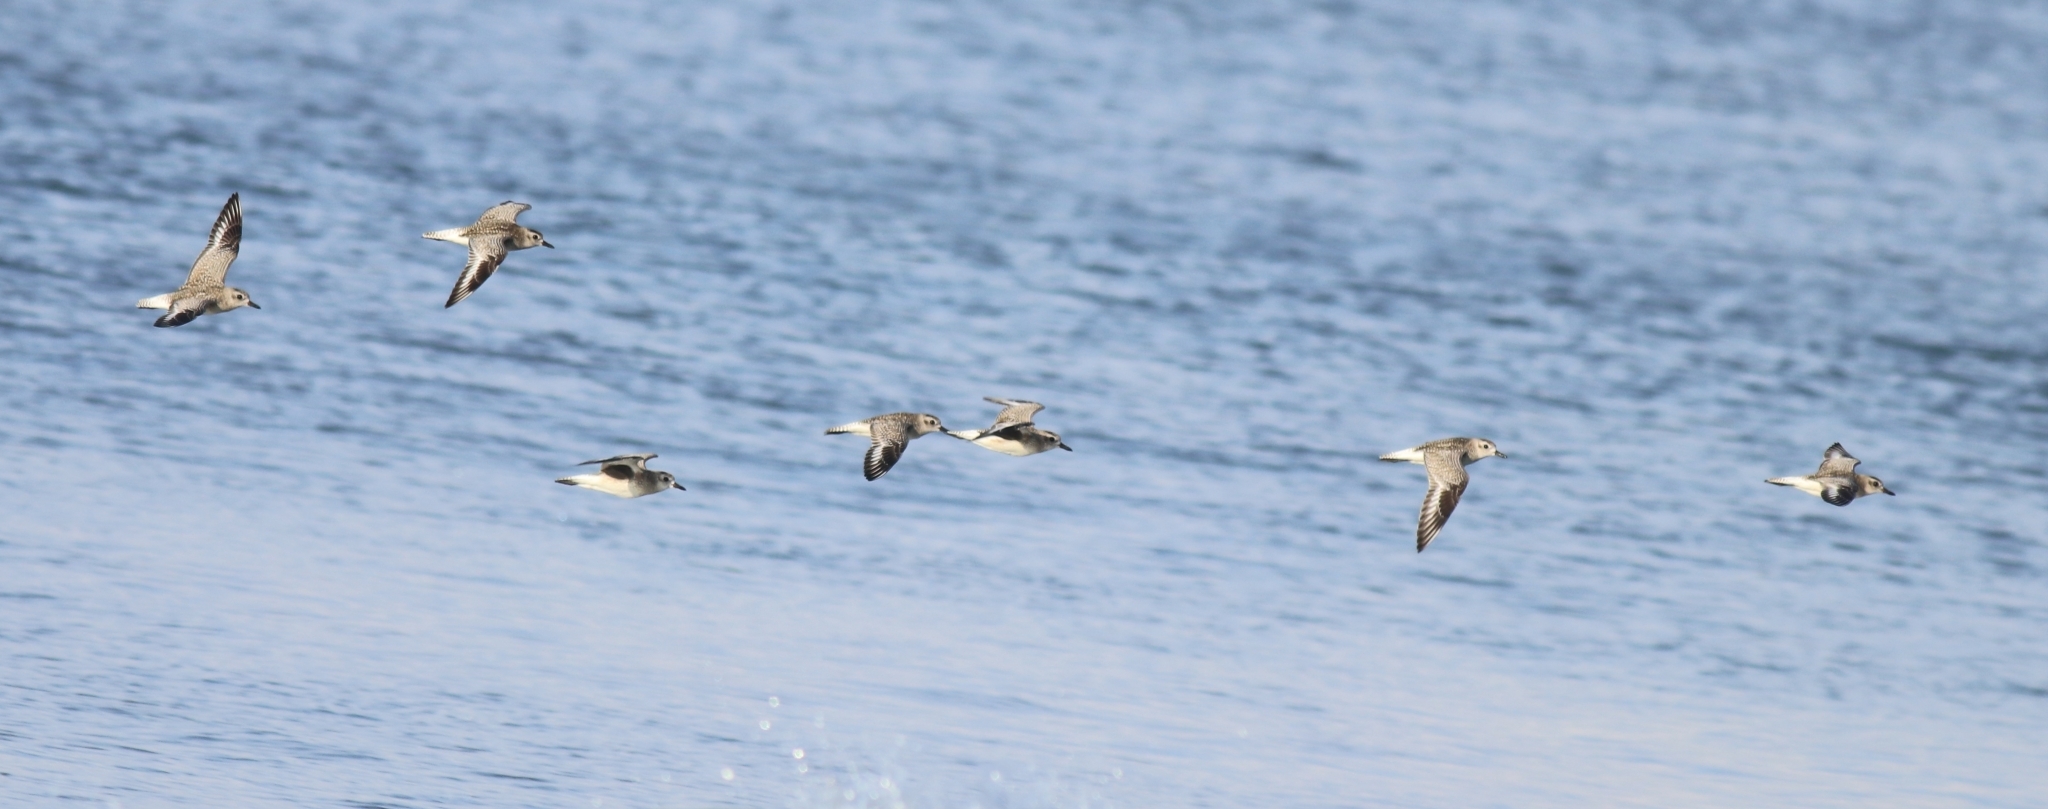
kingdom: Animalia
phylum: Chordata
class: Aves
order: Charadriiformes
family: Charadriidae
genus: Pluvialis
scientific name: Pluvialis squatarola
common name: Grey plover
